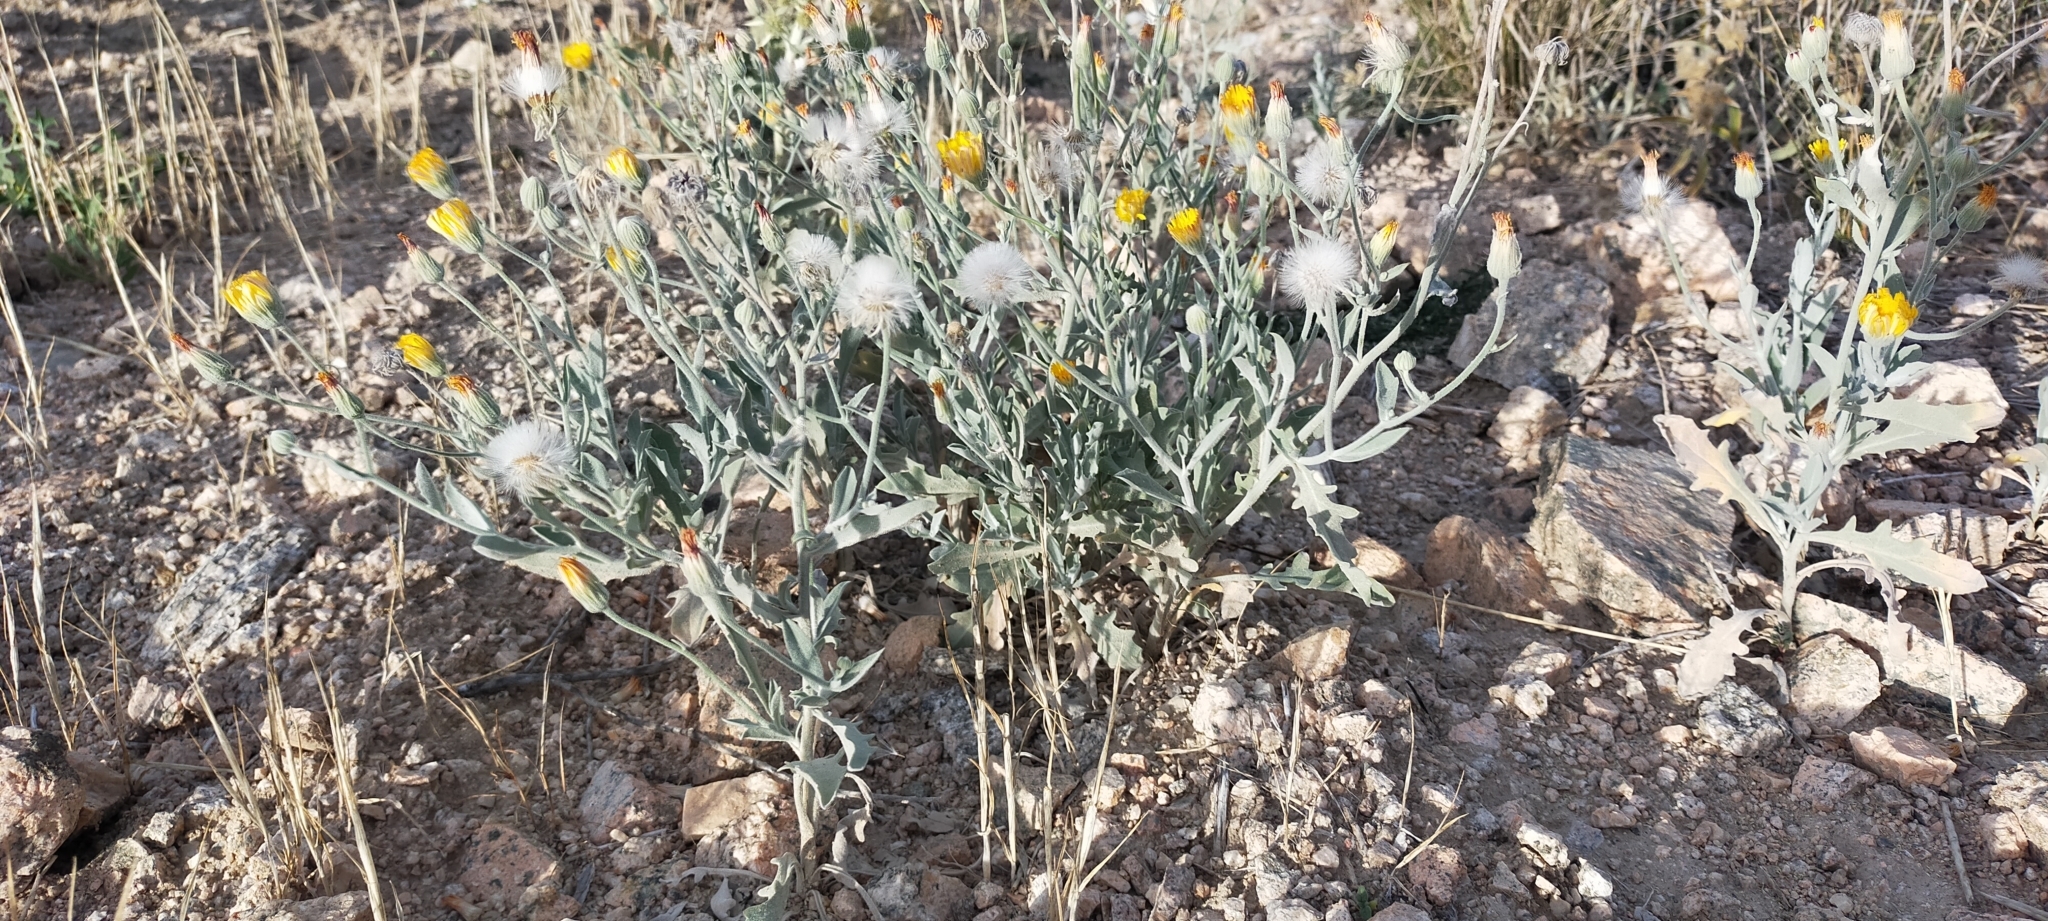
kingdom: Plantae
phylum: Tracheophyta
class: Magnoliopsida
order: Asterales
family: Asteraceae
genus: Andryala
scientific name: Andryala ragusina
